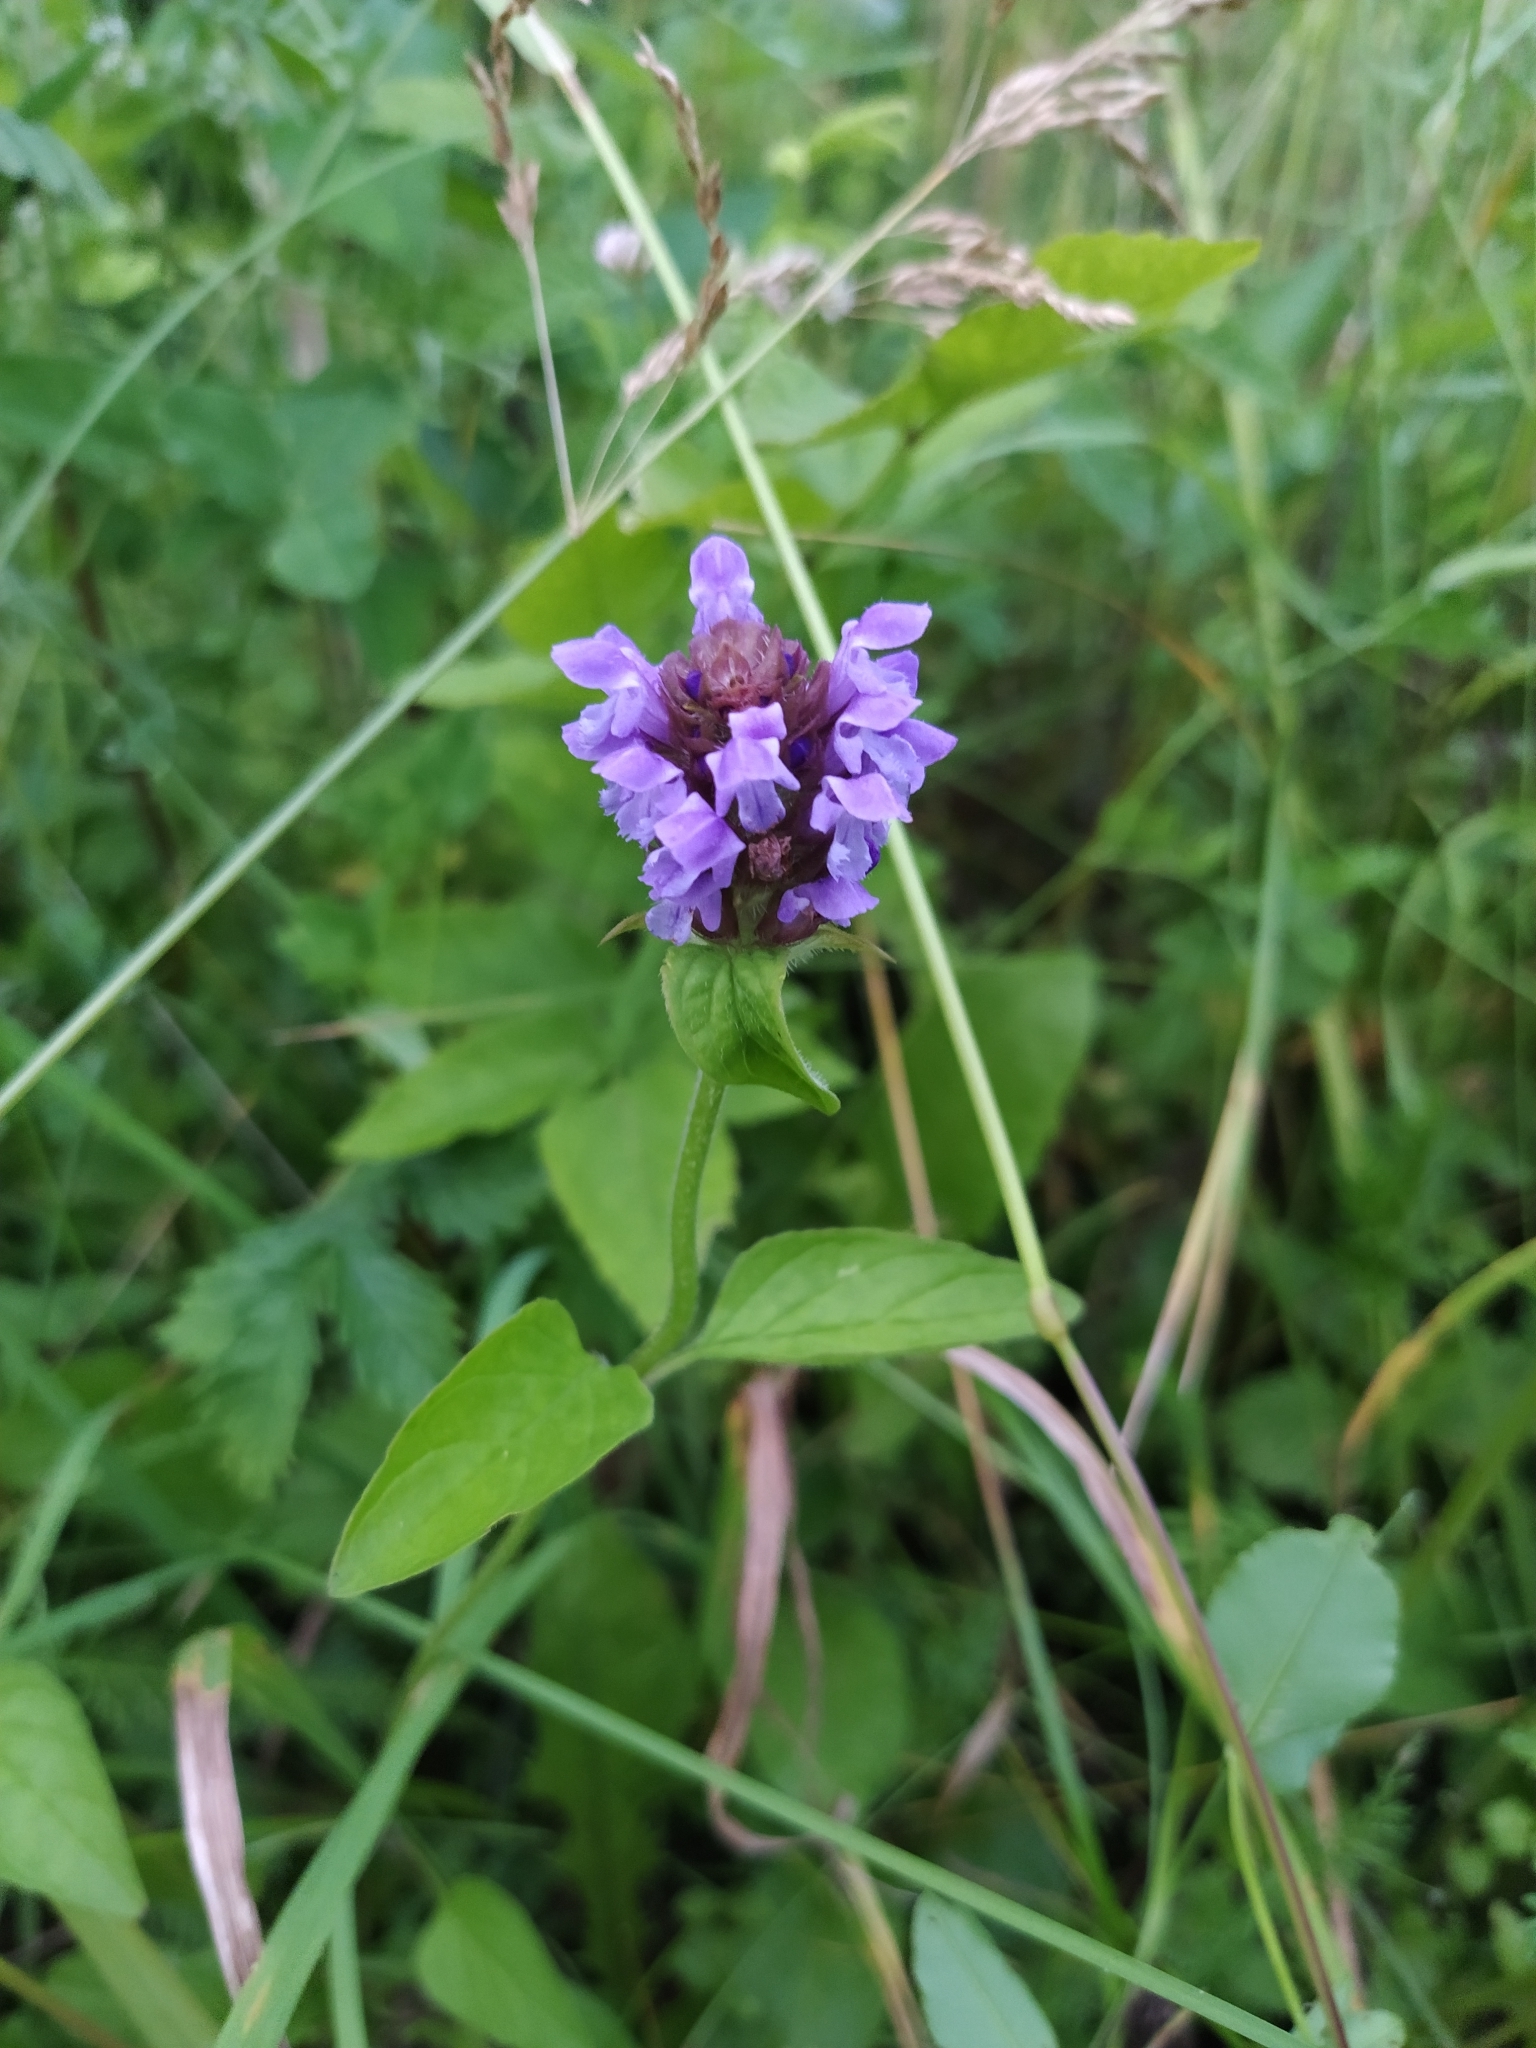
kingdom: Plantae
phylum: Tracheophyta
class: Magnoliopsida
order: Lamiales
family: Lamiaceae
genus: Prunella
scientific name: Prunella vulgaris
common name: Heal-all
